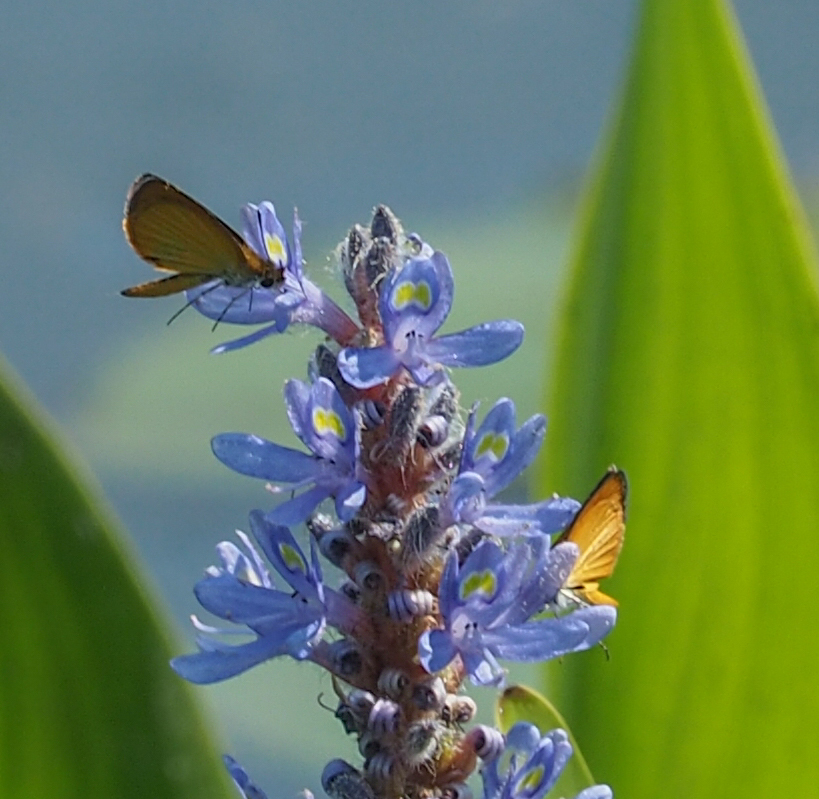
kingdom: Animalia
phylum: Arthropoda
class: Insecta
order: Lepidoptera
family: Hesperiidae
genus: Ancyloxypha
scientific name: Ancyloxypha numitor
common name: Least skipper
